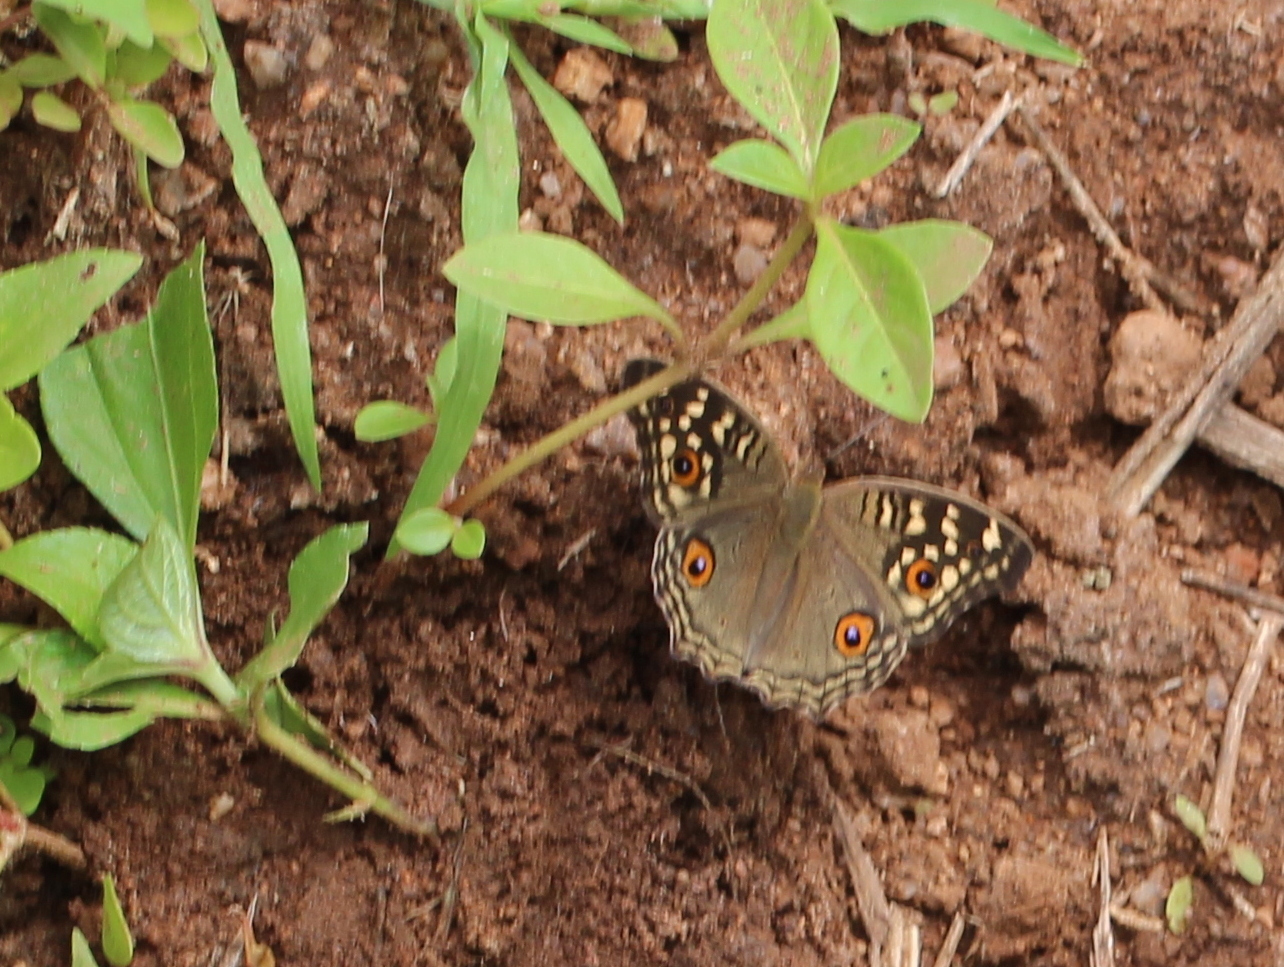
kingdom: Animalia
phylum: Arthropoda
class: Insecta
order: Lepidoptera
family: Nymphalidae
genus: Junonia
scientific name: Junonia lemonias
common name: Lemon pansy
